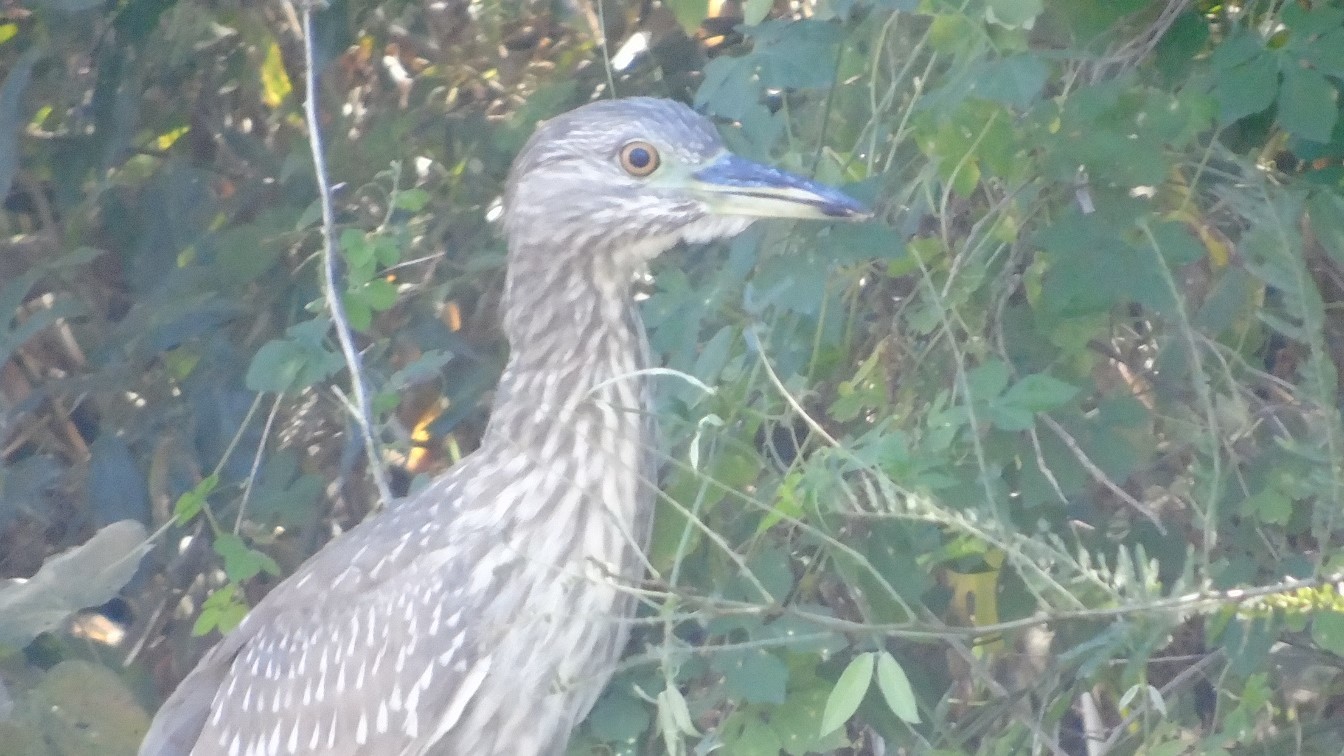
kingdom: Animalia
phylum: Chordata
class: Aves
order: Pelecaniformes
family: Ardeidae
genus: Nycticorax
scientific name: Nycticorax nycticorax
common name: Black-crowned night heron
